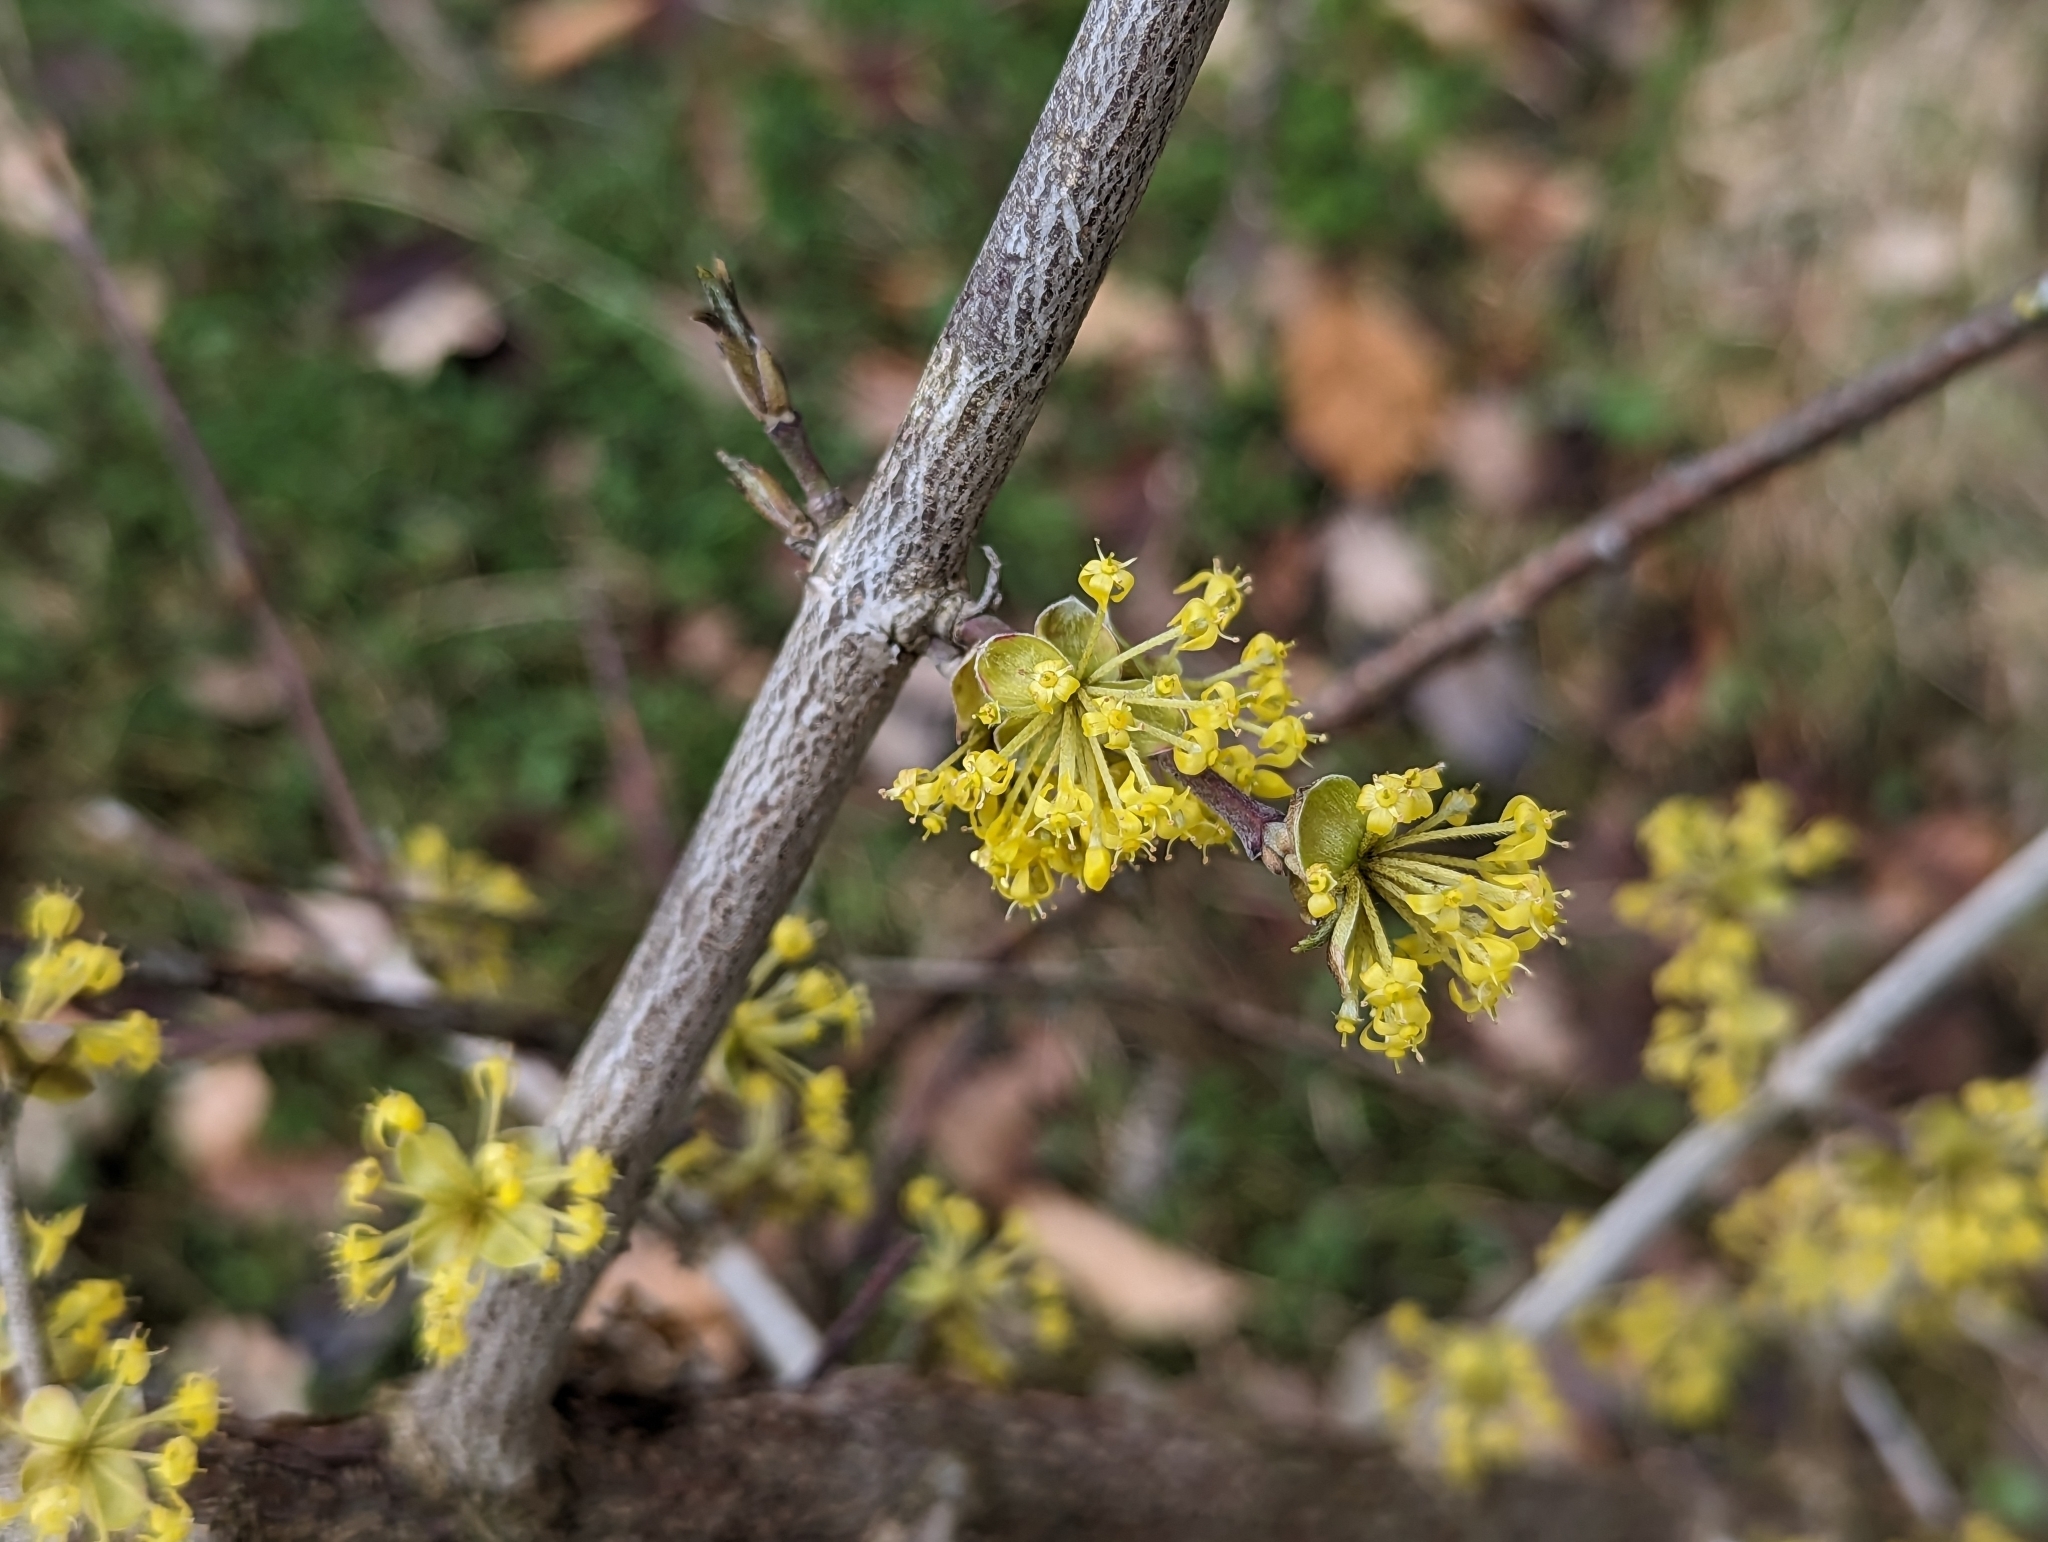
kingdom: Plantae
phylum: Tracheophyta
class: Magnoliopsida
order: Cornales
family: Cornaceae
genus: Cornus
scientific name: Cornus mas
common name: Cornelian-cherry
